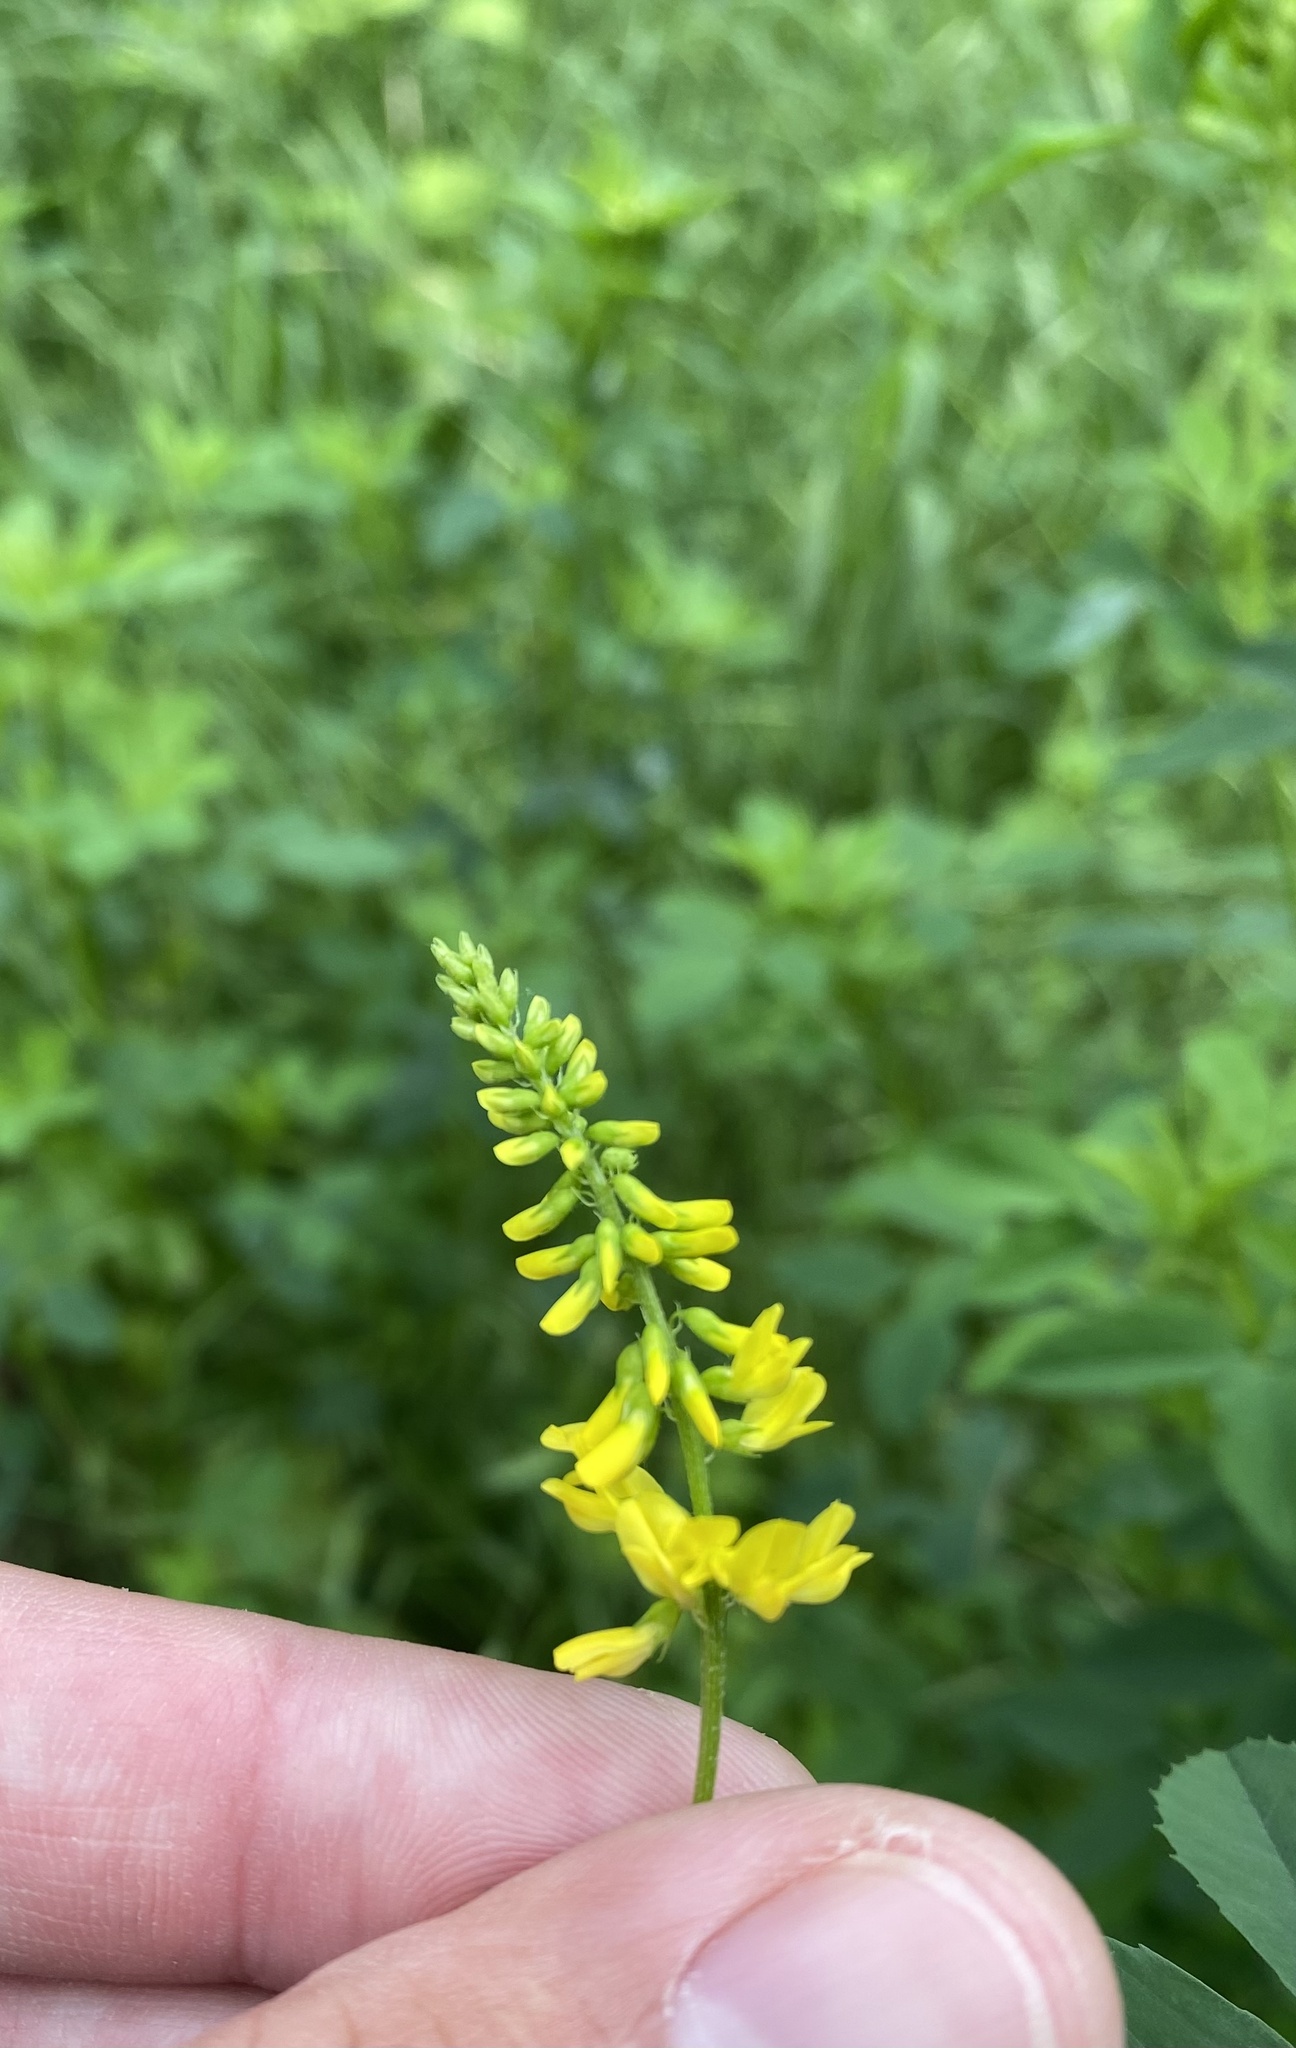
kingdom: Plantae
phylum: Tracheophyta
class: Magnoliopsida
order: Fabales
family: Fabaceae
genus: Melilotus
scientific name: Melilotus officinalis
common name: Sweetclover
